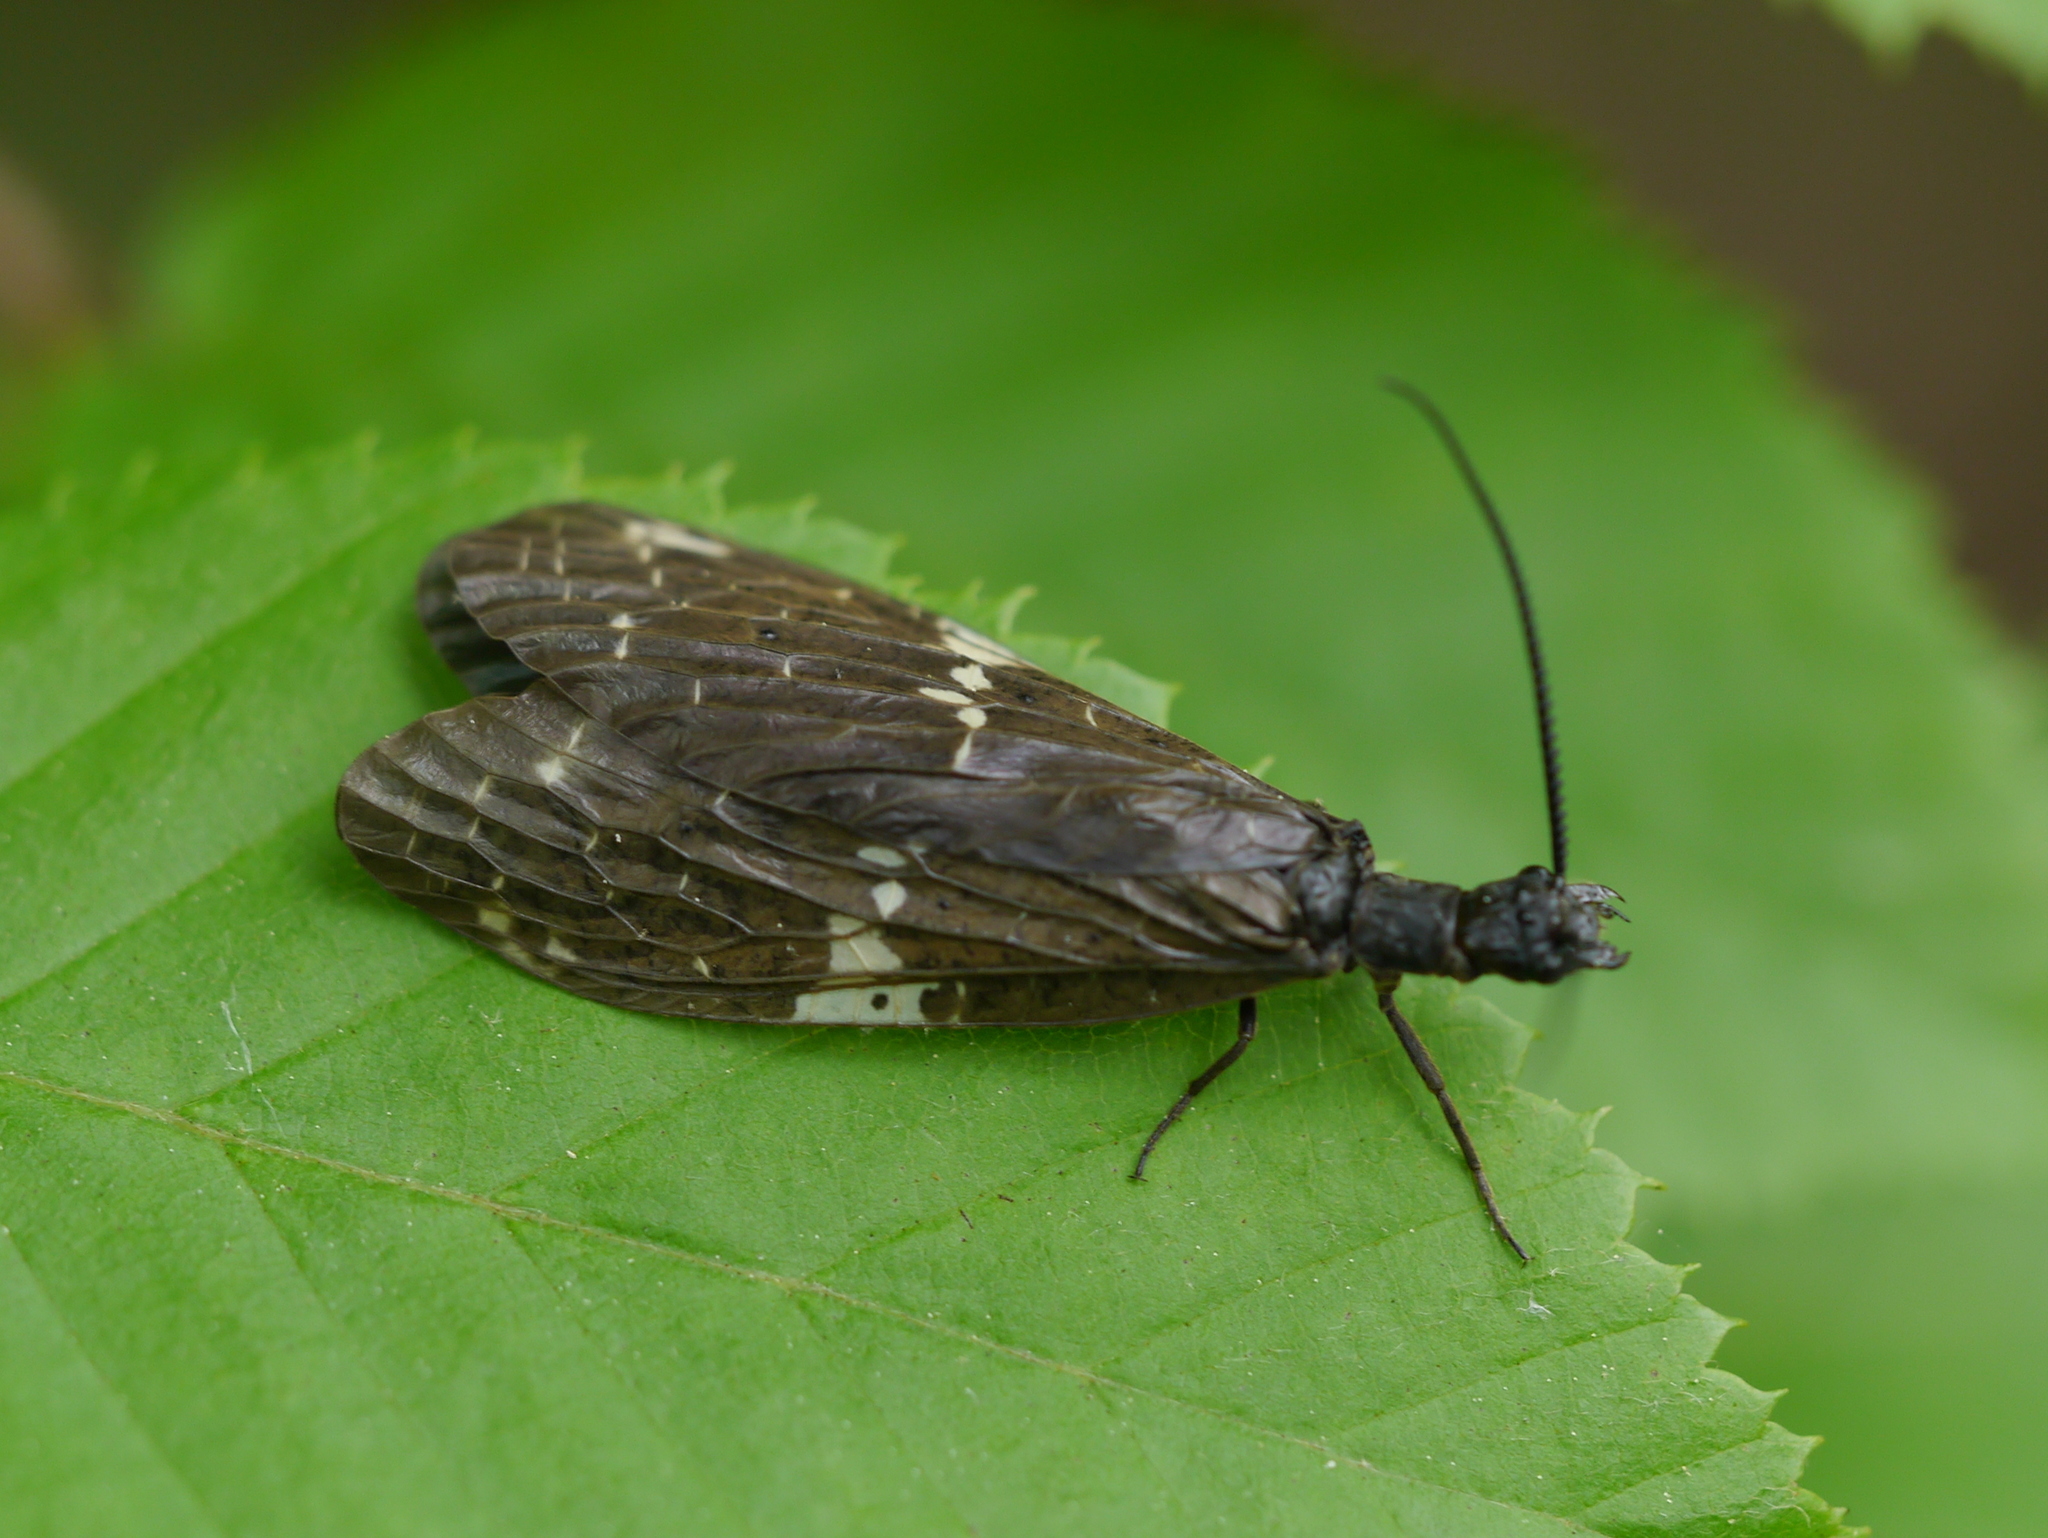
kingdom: Animalia
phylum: Arthropoda
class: Insecta
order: Megaloptera
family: Corydalidae
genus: Nigronia
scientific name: Nigronia serricornis
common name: Serrate dark fishfly
